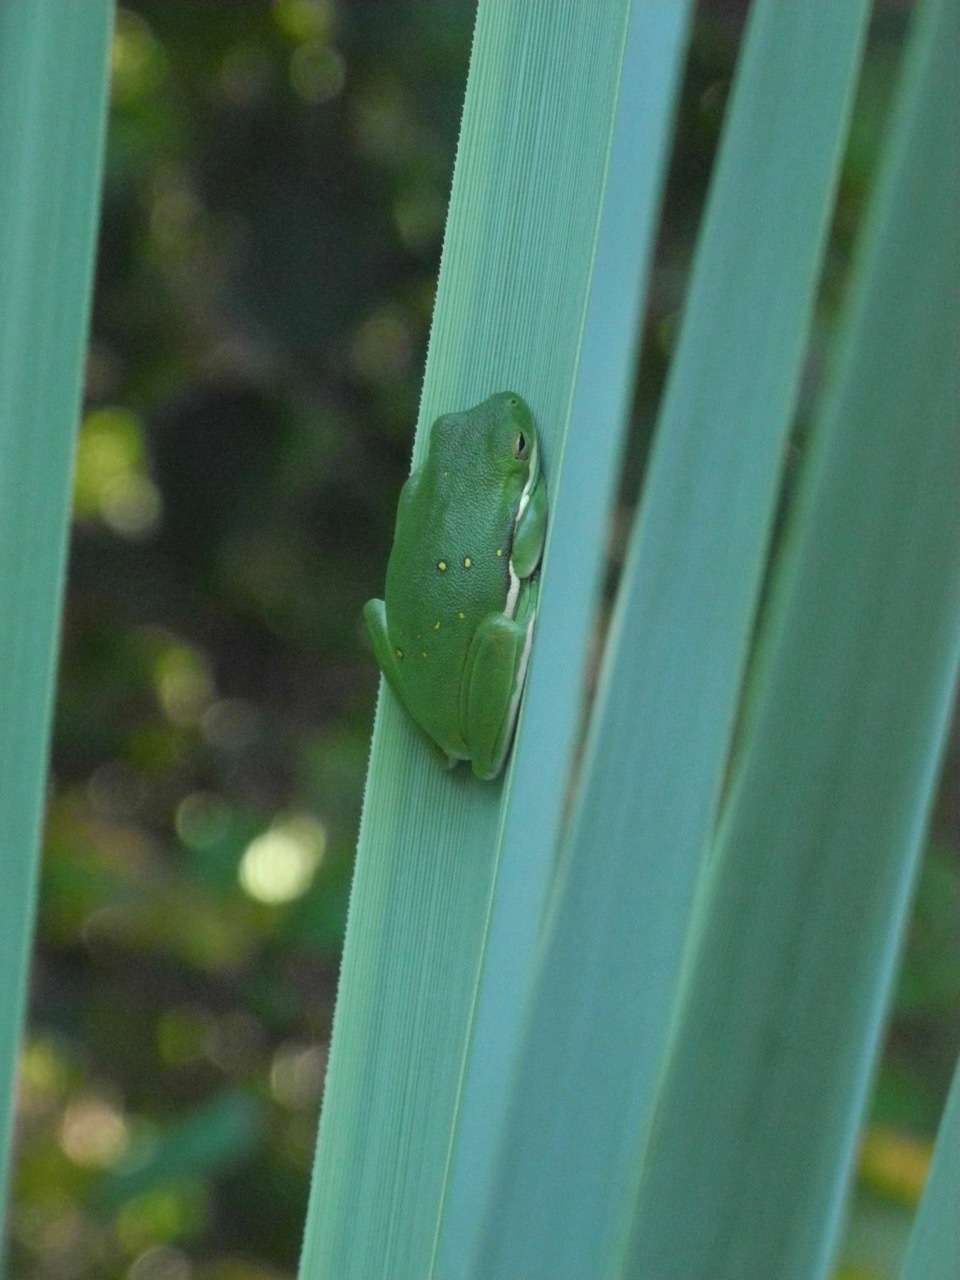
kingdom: Animalia
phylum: Chordata
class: Amphibia
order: Anura
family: Hylidae
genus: Dryophytes
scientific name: Dryophytes cinereus
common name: Green treefrog
